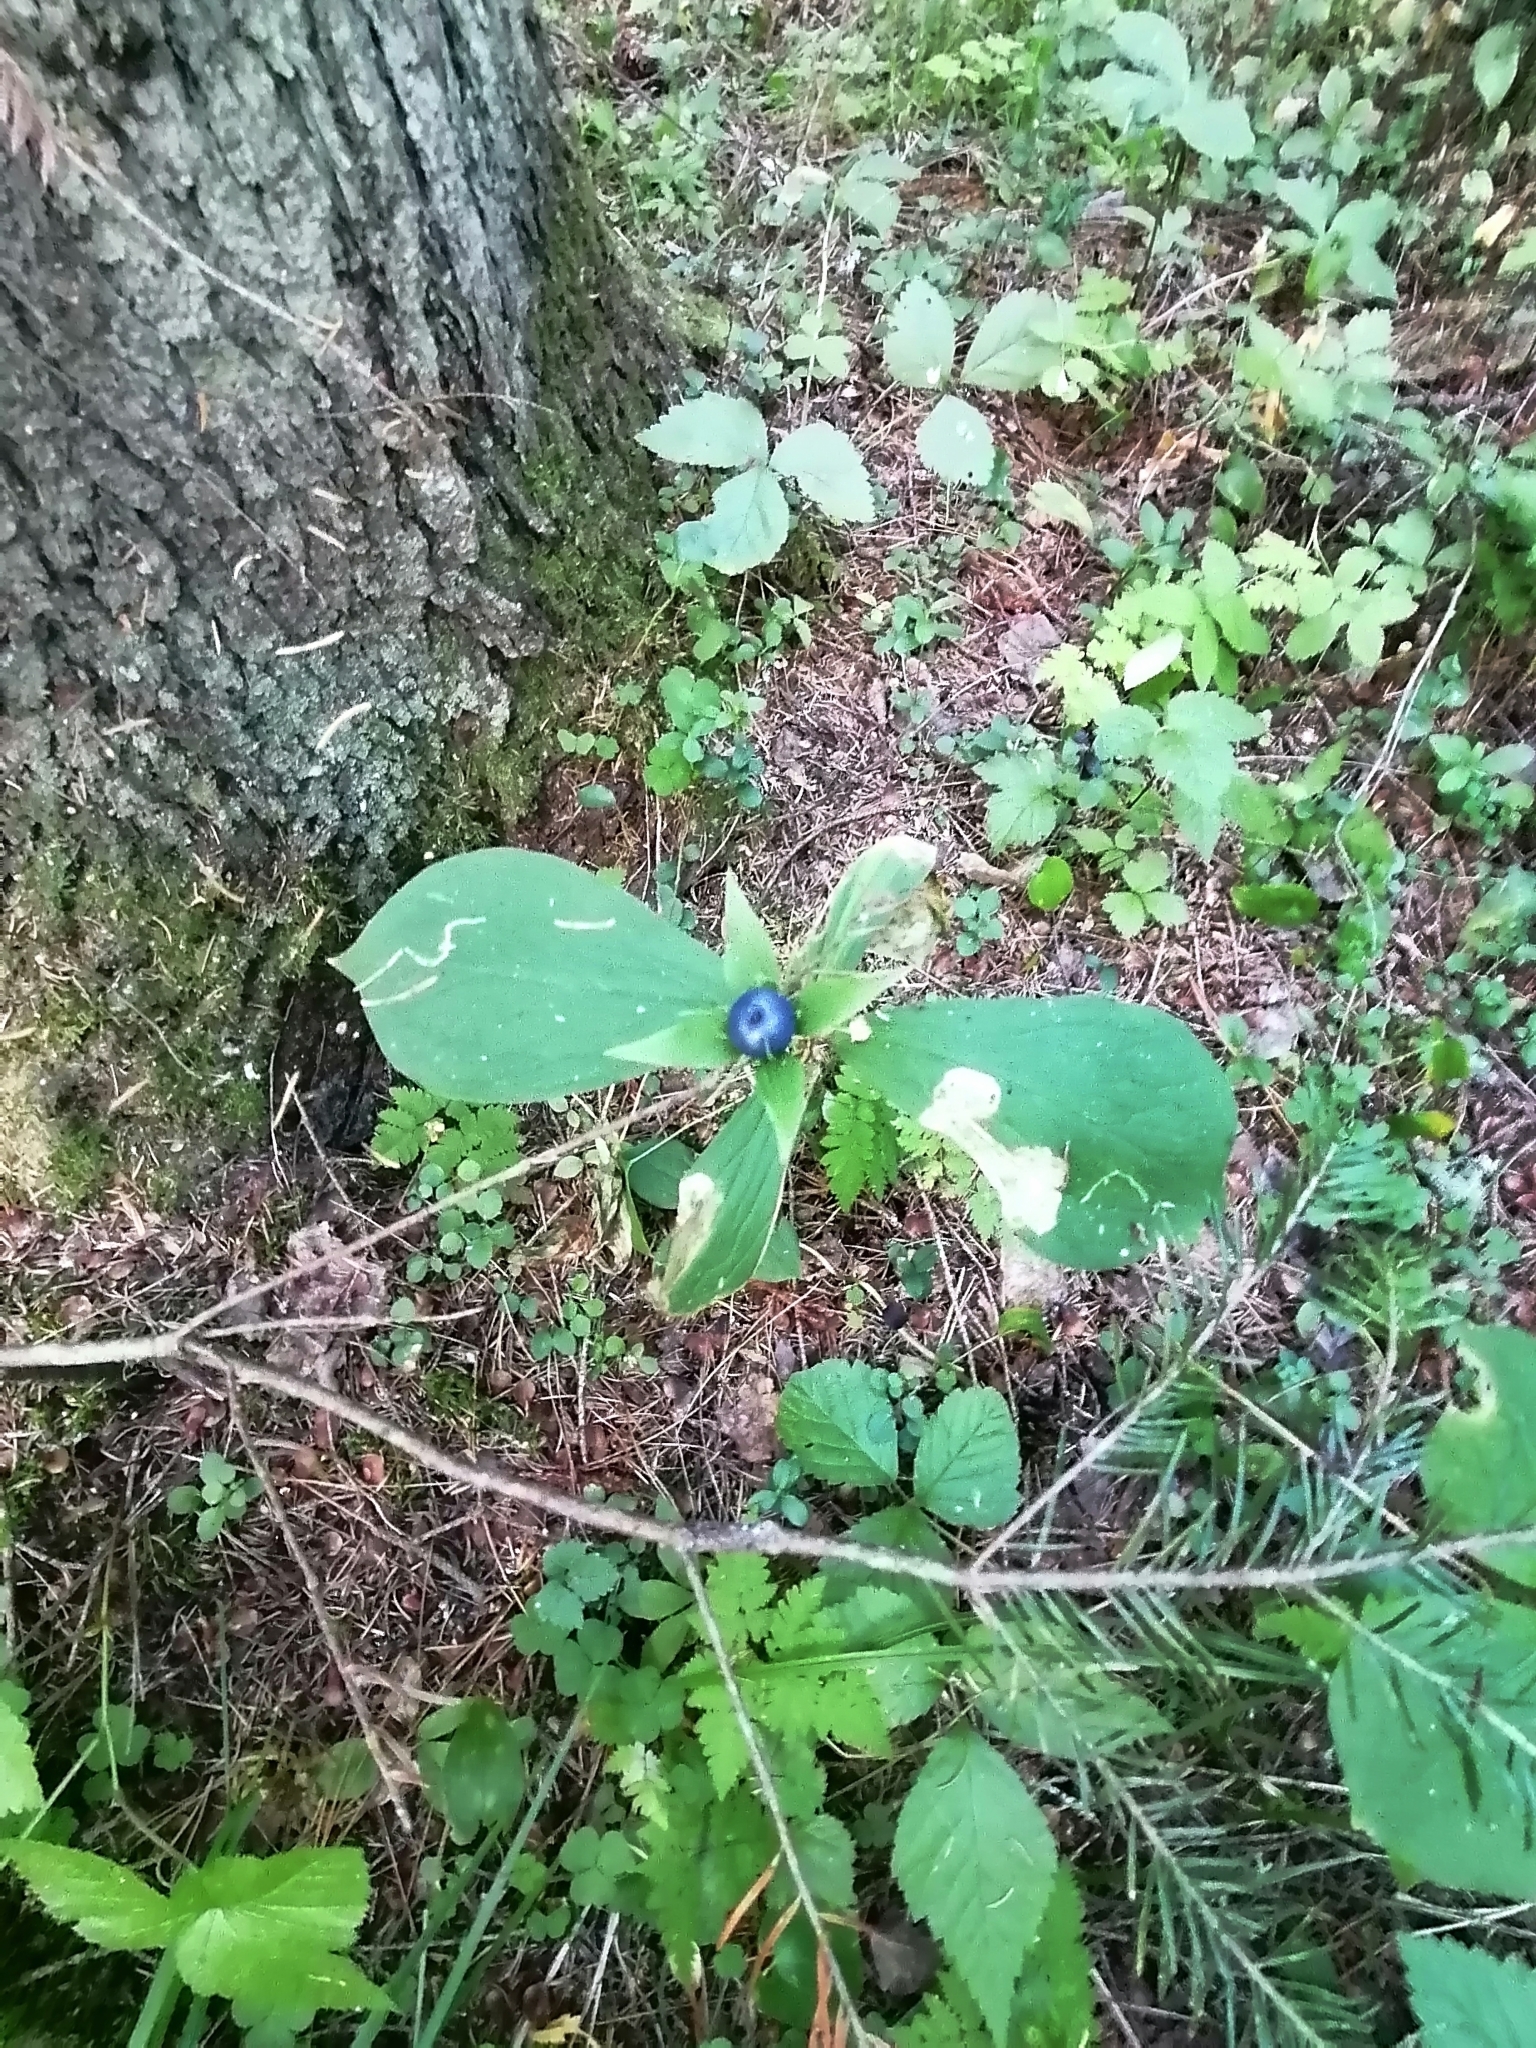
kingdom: Plantae
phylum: Tracheophyta
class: Liliopsida
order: Liliales
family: Melanthiaceae
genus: Paris
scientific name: Paris quadrifolia
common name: Herb-paris
